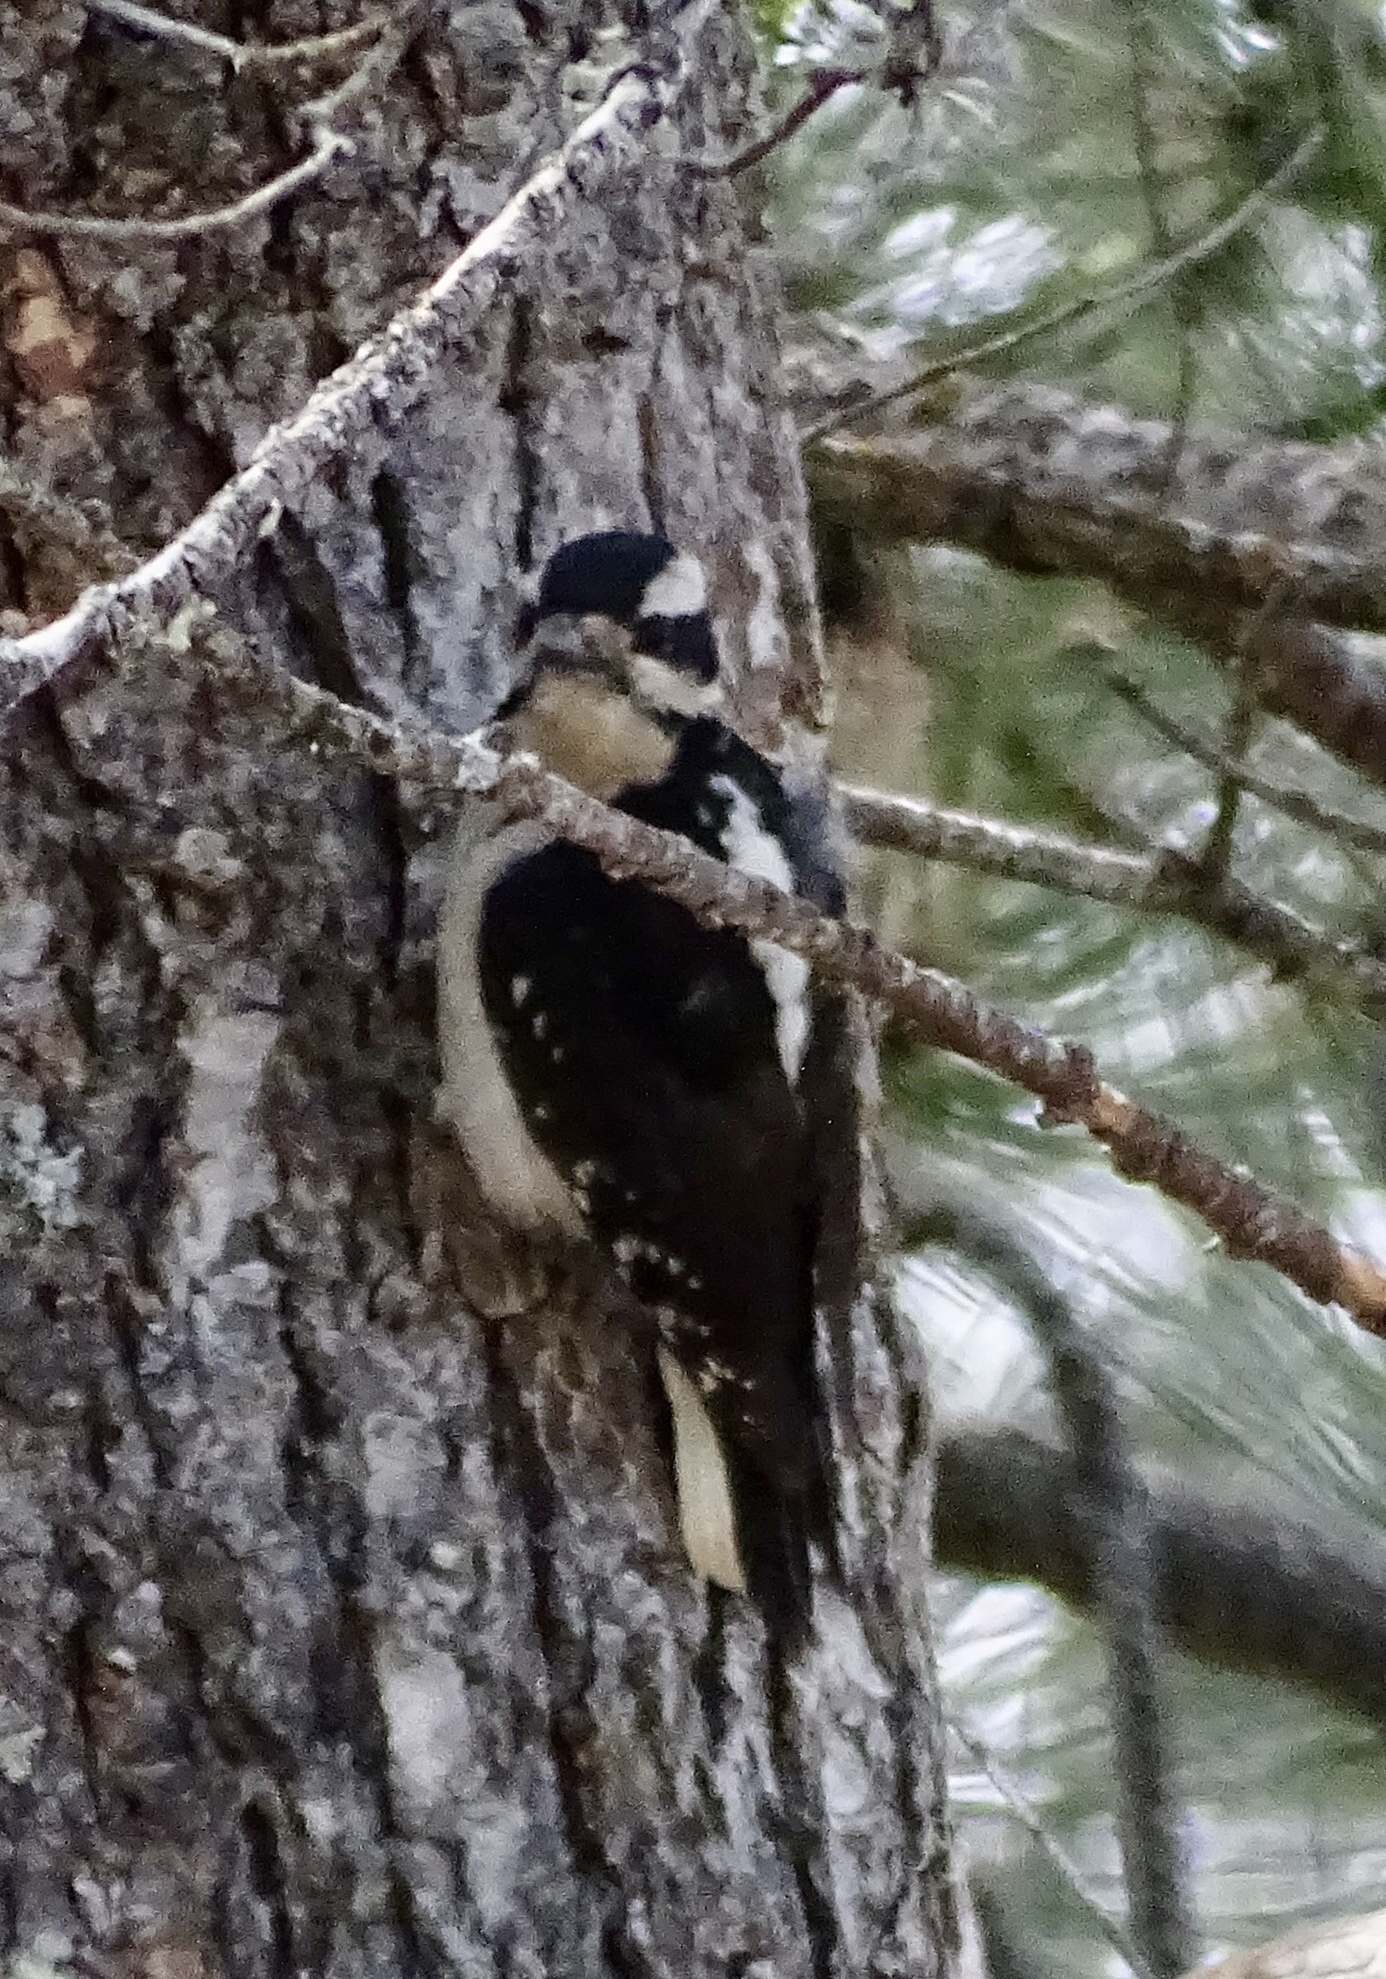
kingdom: Animalia
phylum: Chordata
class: Aves
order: Piciformes
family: Picidae
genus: Leuconotopicus
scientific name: Leuconotopicus villosus
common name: Hairy woodpecker
